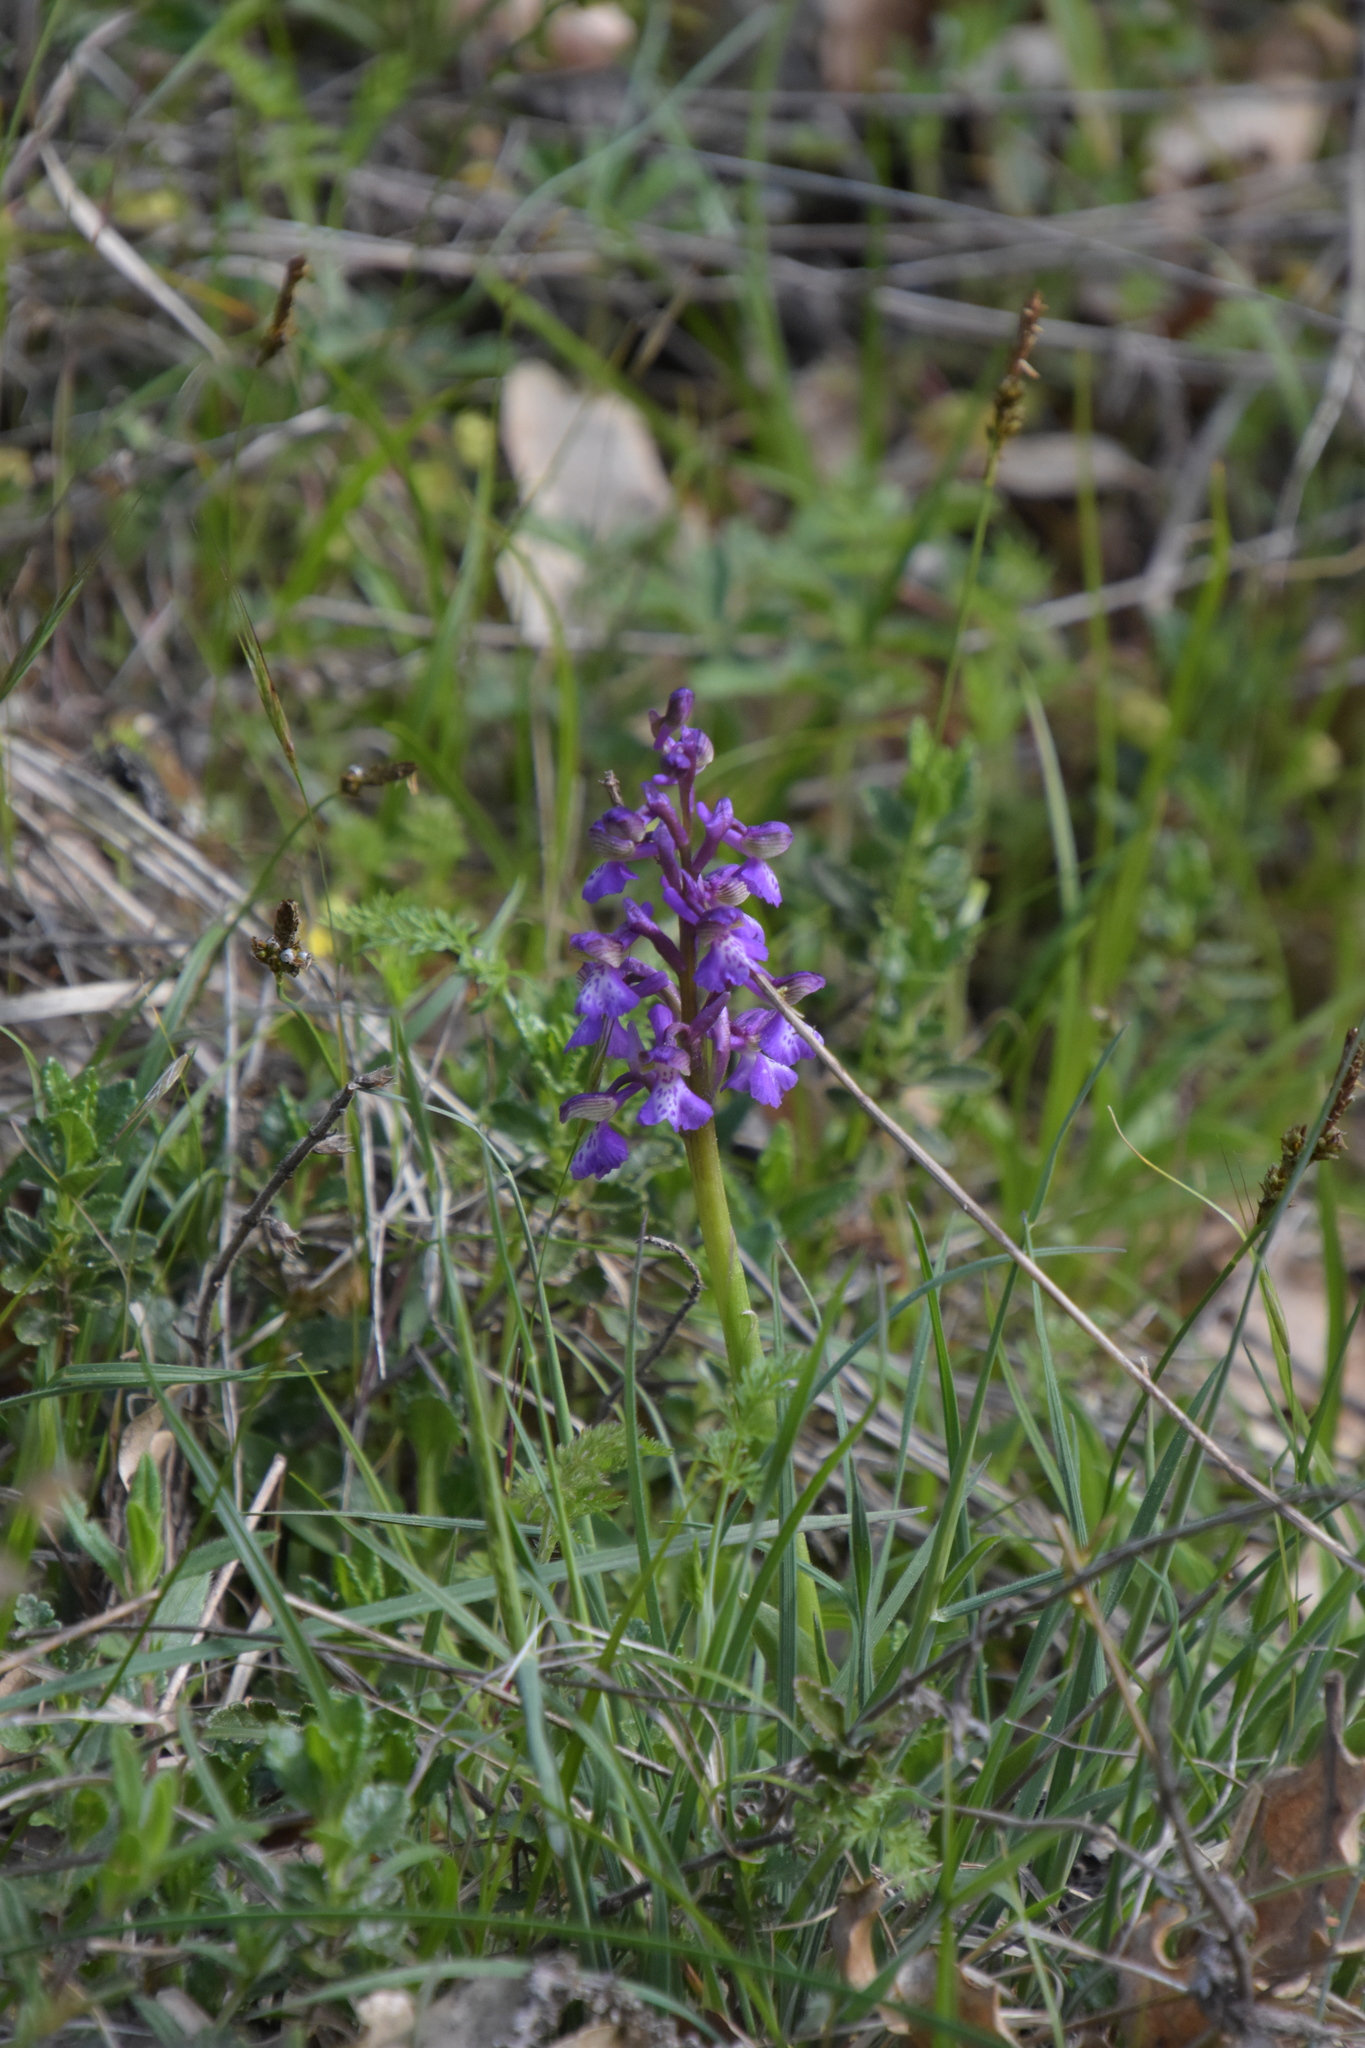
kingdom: Plantae
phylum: Tracheophyta
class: Liliopsida
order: Asparagales
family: Orchidaceae
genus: Anacamptis
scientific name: Anacamptis morio
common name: Green-winged orchid
